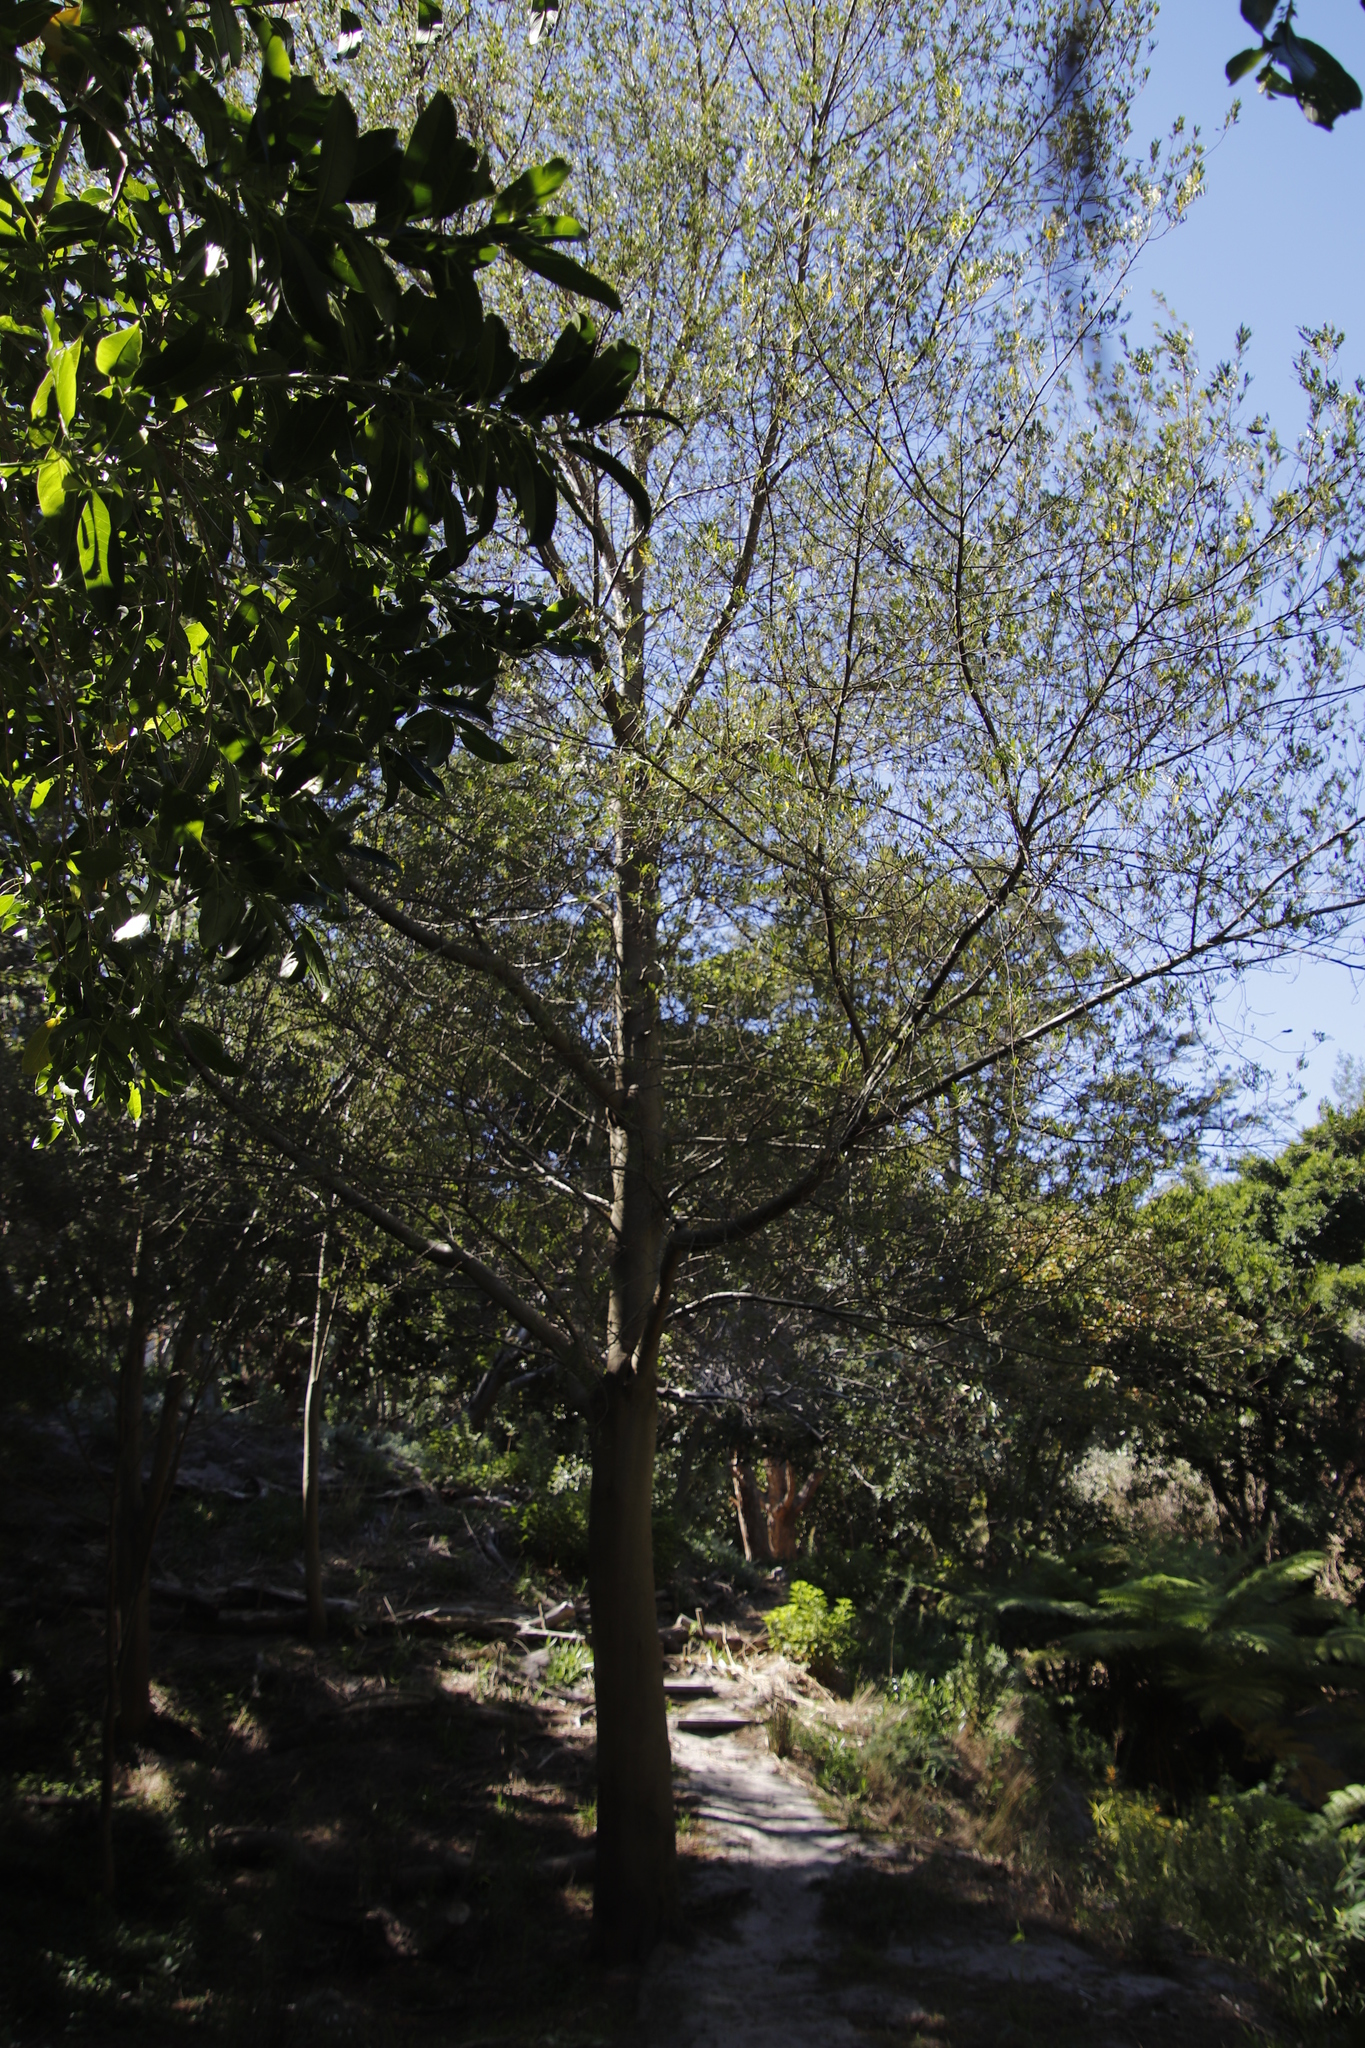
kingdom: Plantae
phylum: Tracheophyta
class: Magnoliopsida
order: Fabales
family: Fabaceae
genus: Virgilia
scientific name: Virgilia oroboides
